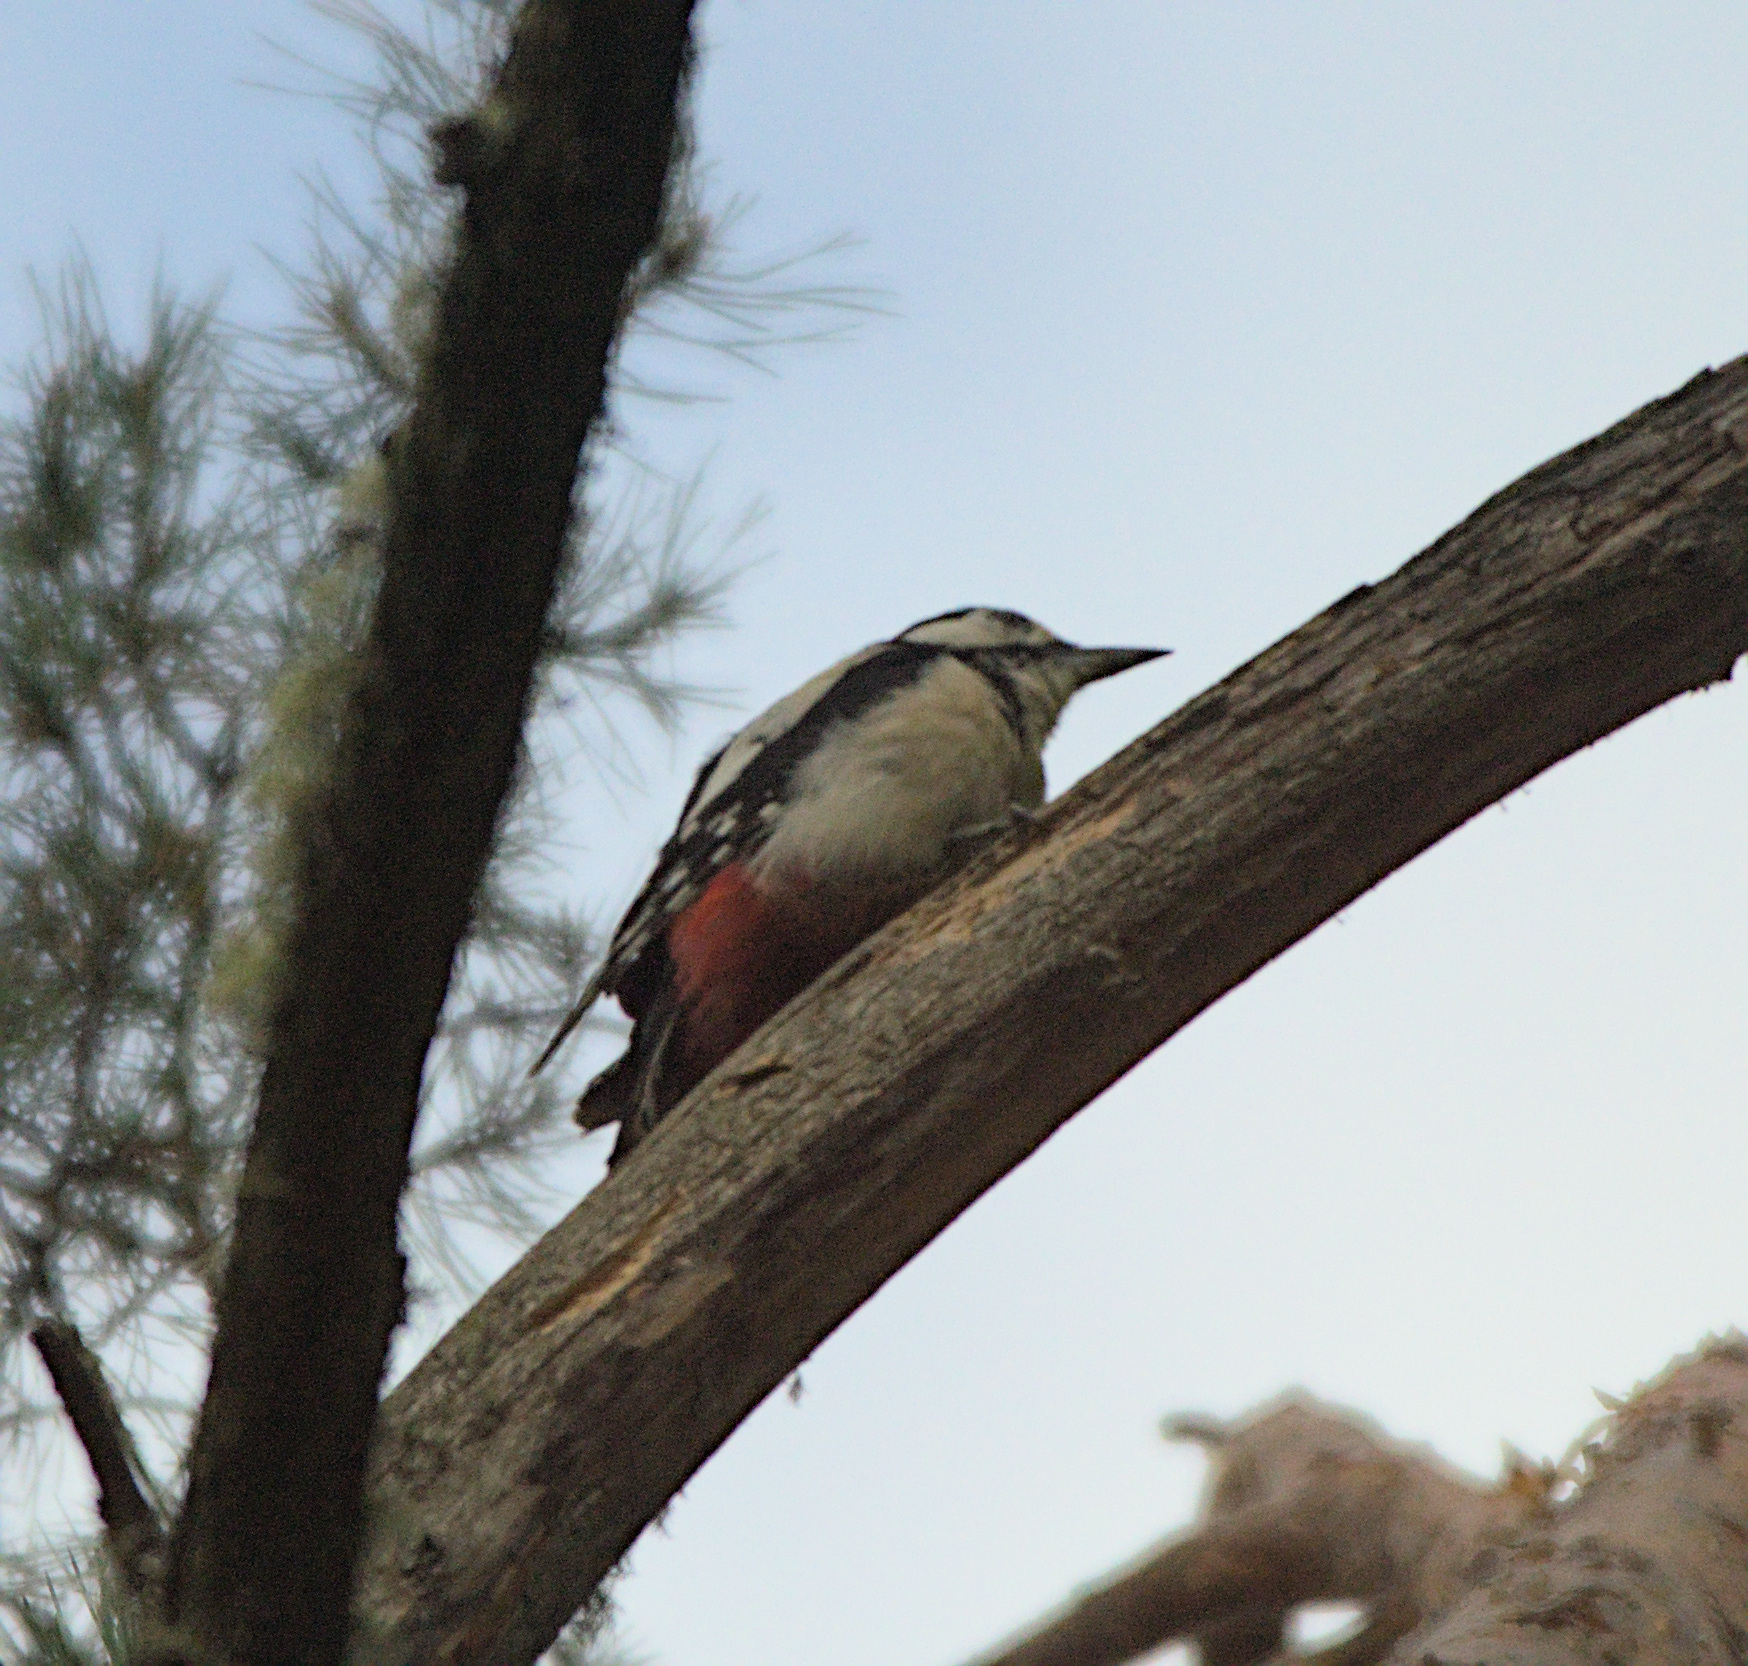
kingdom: Animalia
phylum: Chordata
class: Aves
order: Piciformes
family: Picidae
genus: Dendrocopos
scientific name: Dendrocopos major
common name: Great spotted woodpecker
